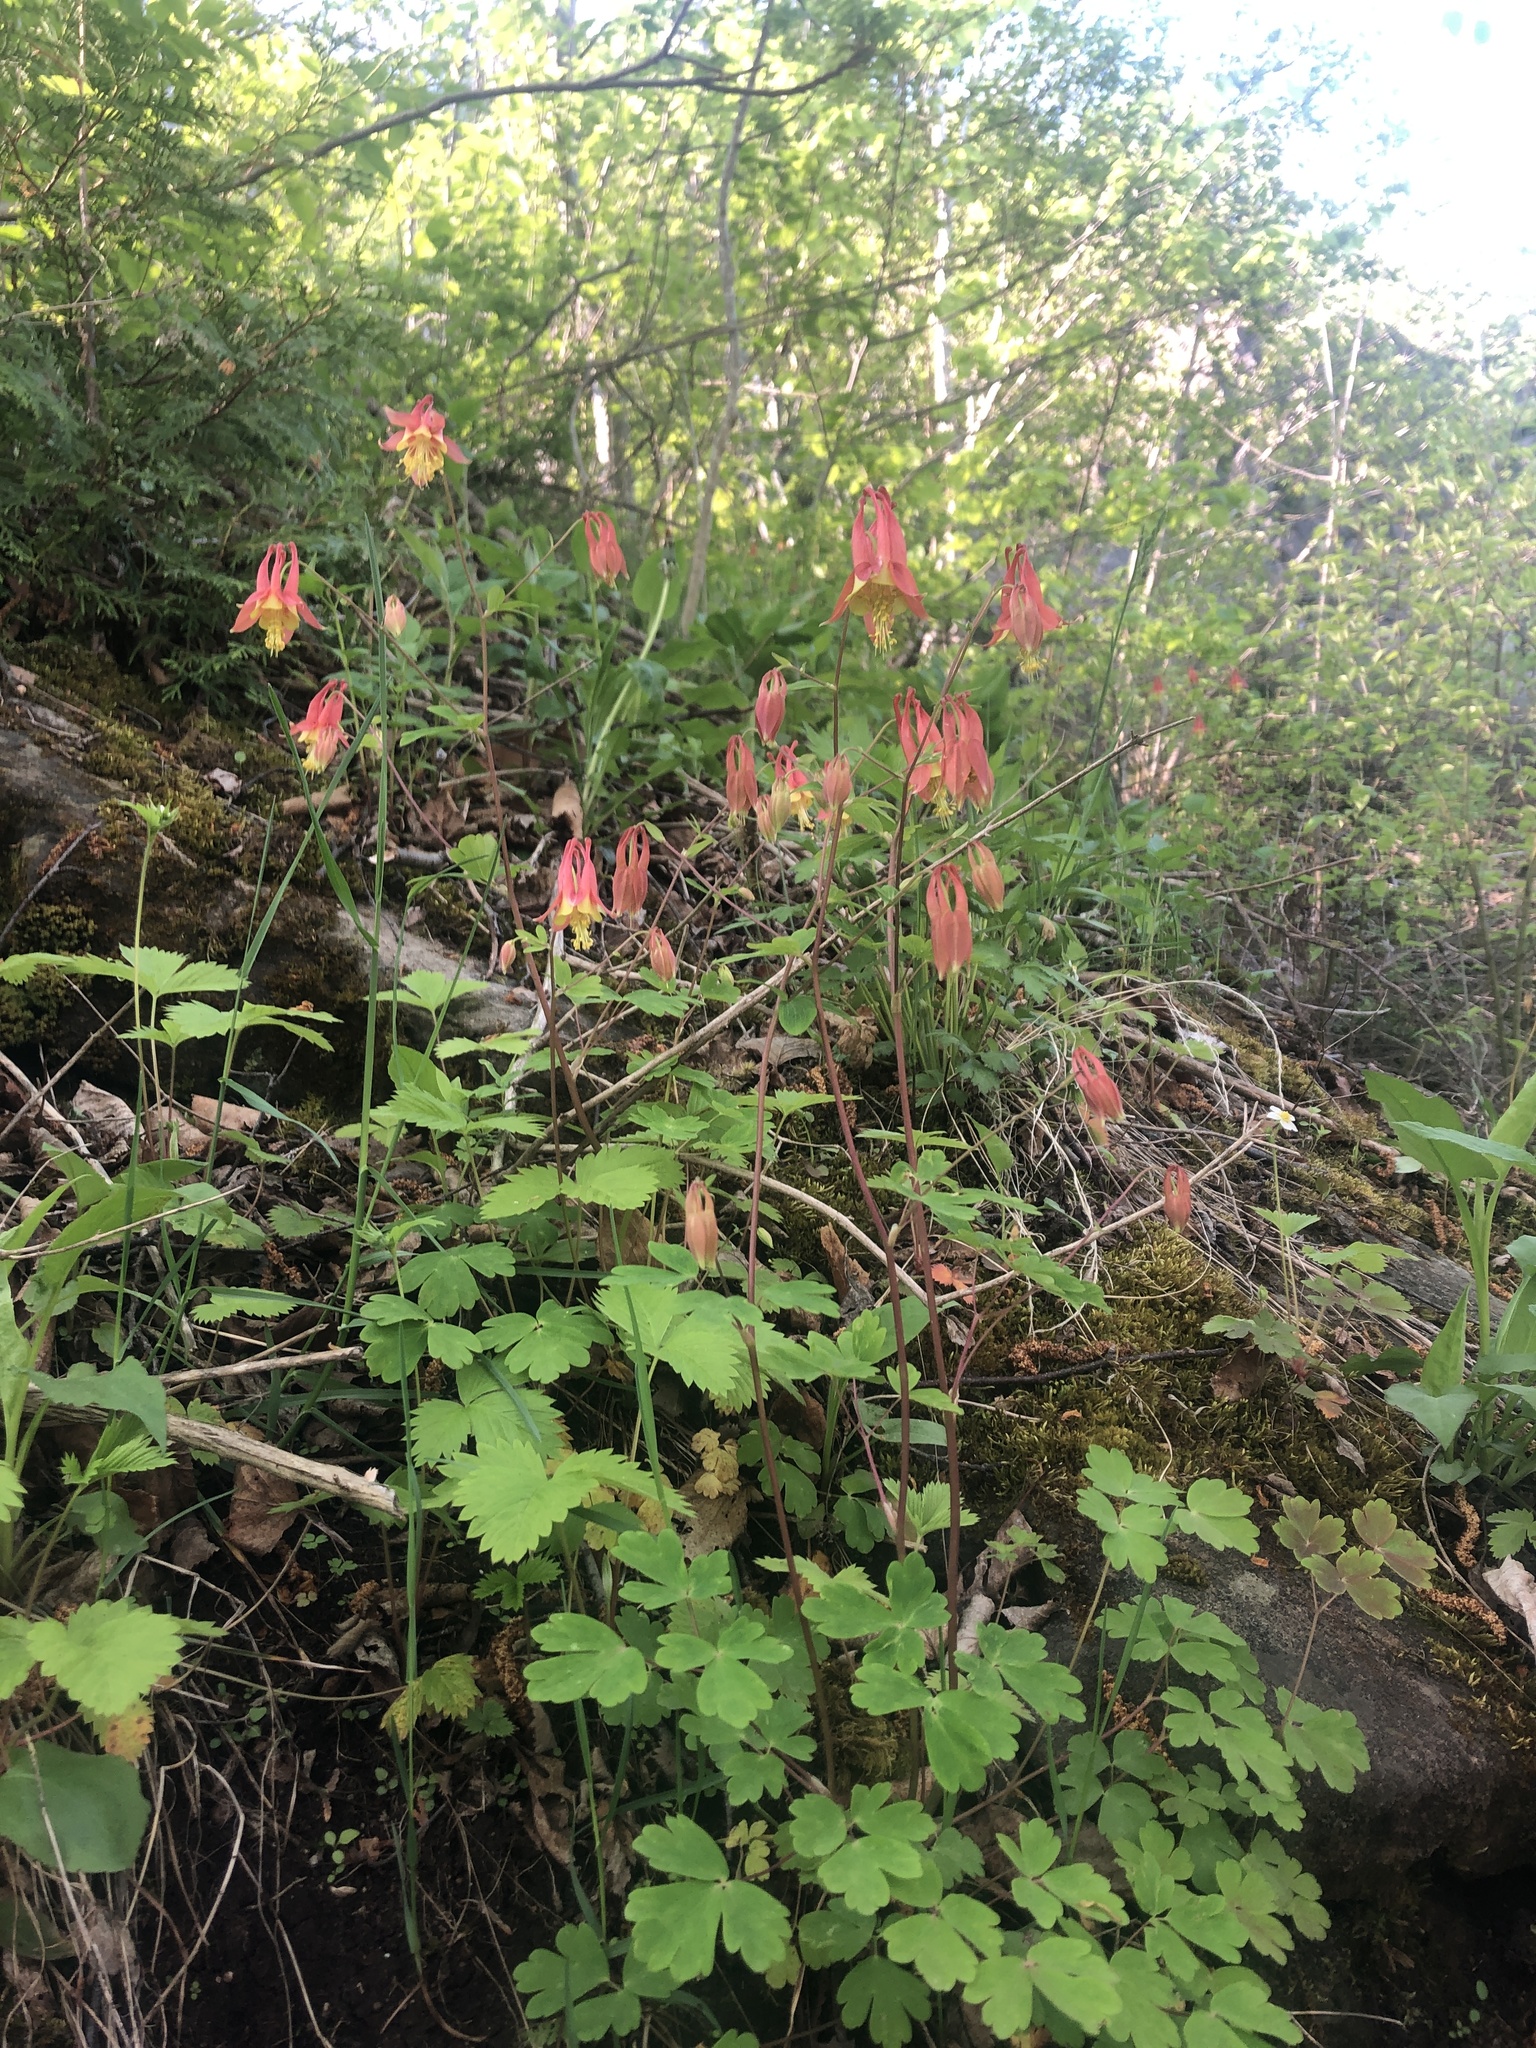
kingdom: Plantae
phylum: Tracheophyta
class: Magnoliopsida
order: Ranunculales
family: Ranunculaceae
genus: Aquilegia
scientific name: Aquilegia canadensis
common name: American columbine
